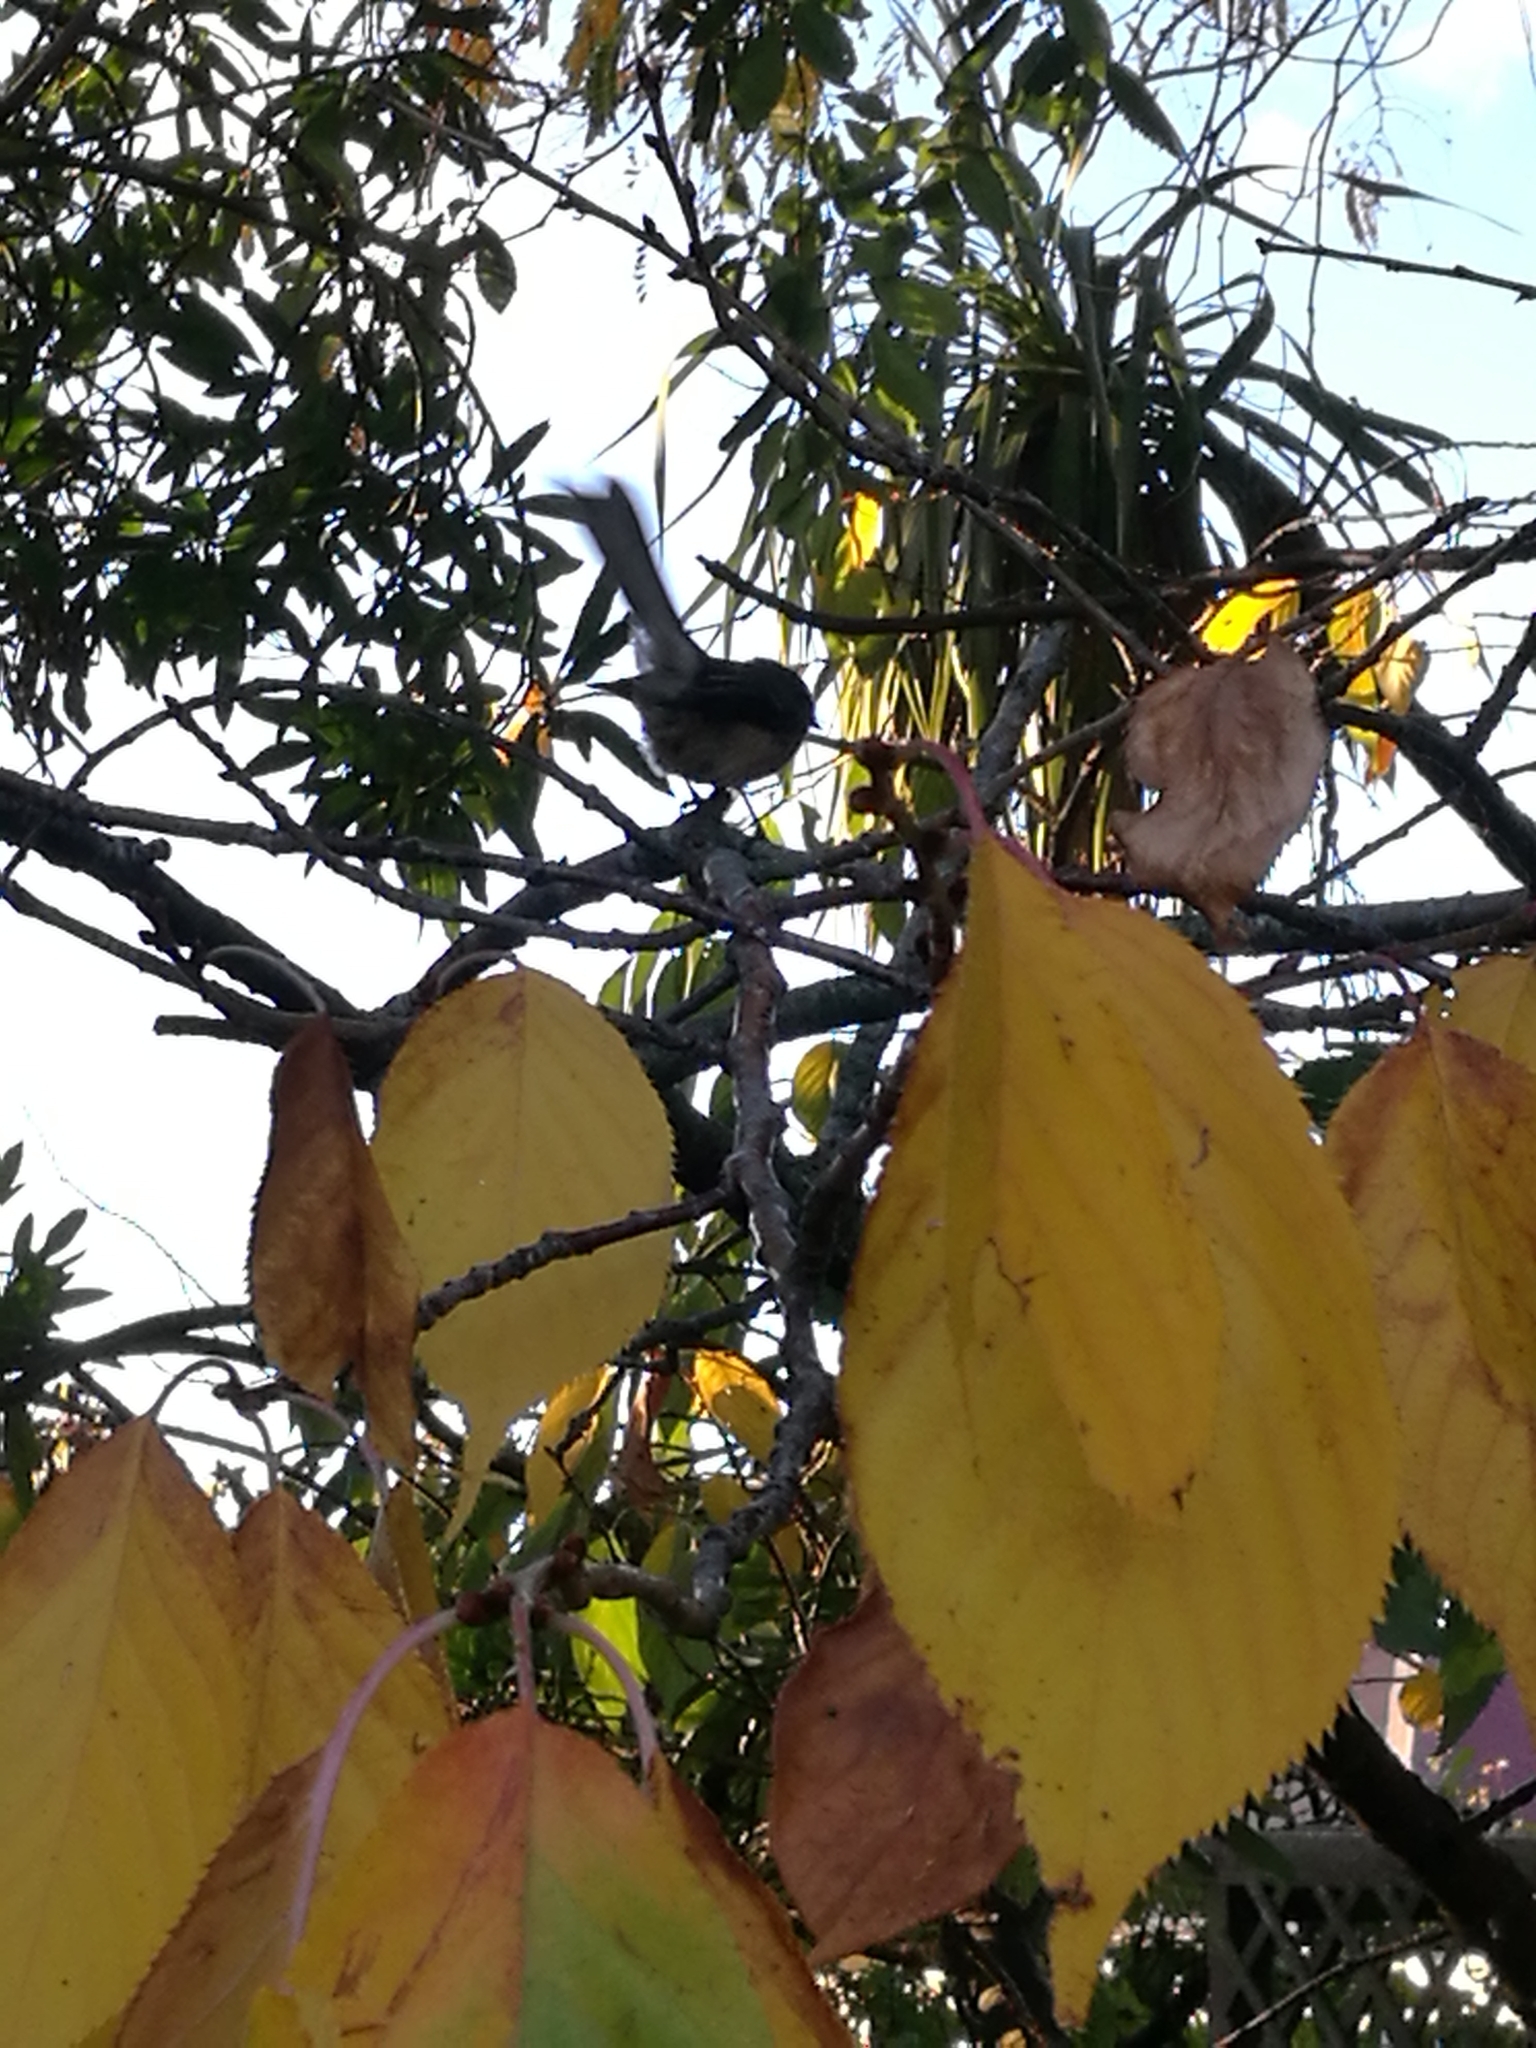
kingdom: Animalia
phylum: Chordata
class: Aves
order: Passeriformes
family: Rhipiduridae
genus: Rhipidura
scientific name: Rhipidura fuliginosa
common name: New zealand fantail
